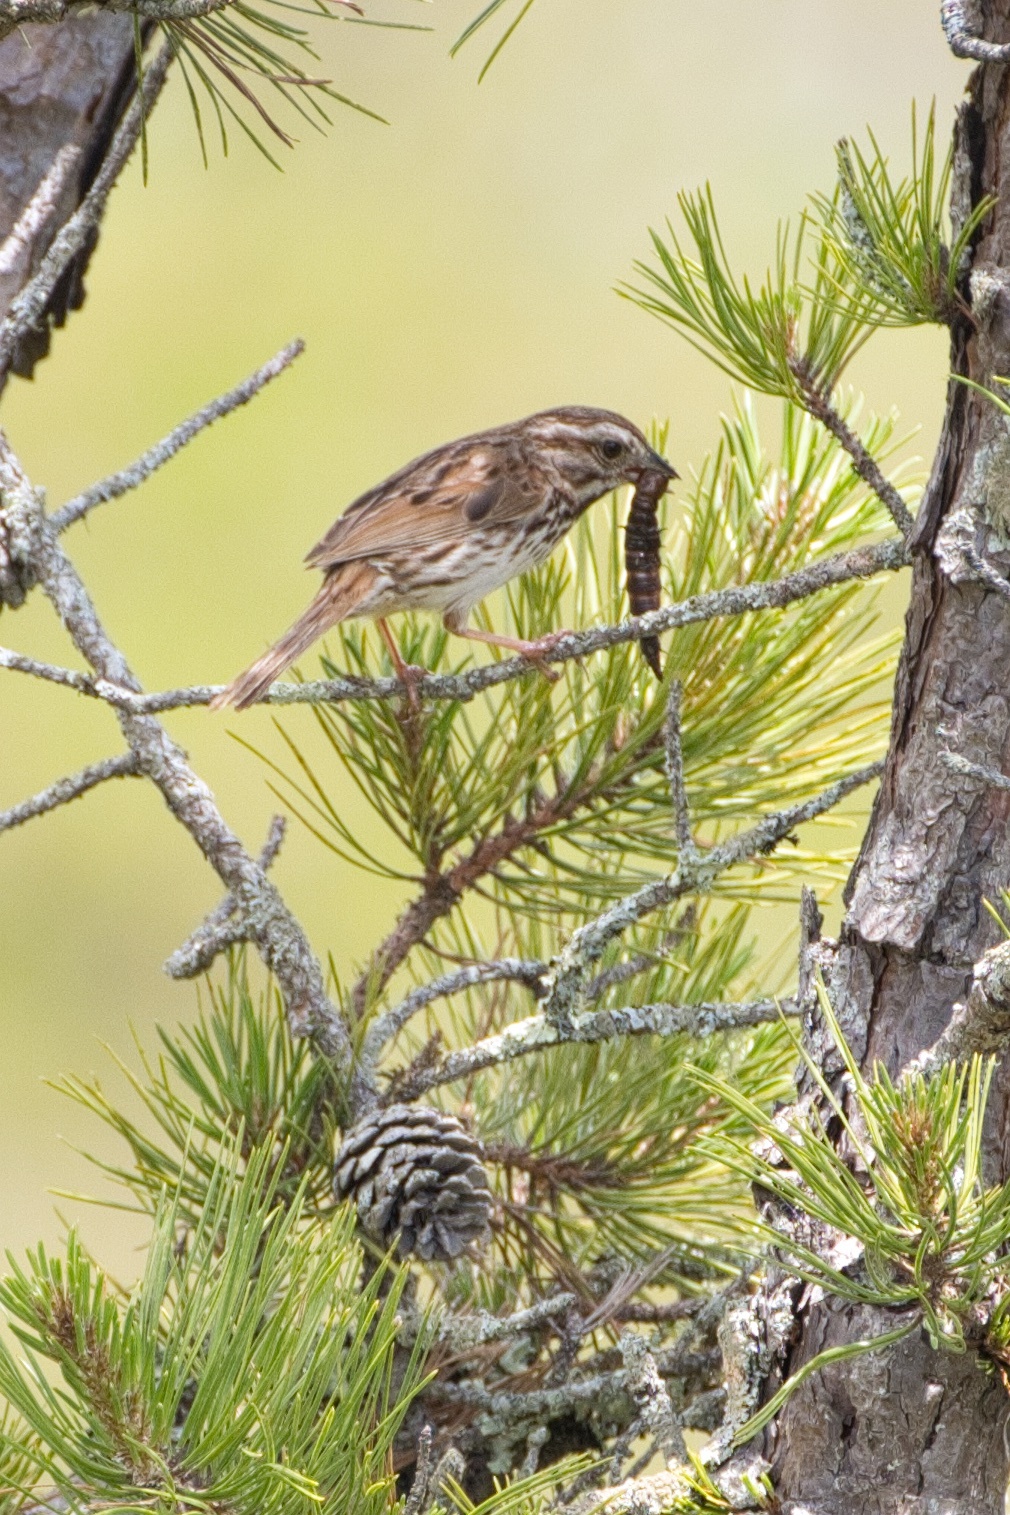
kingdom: Animalia
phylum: Chordata
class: Aves
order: Passeriformes
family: Passerellidae
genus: Melospiza
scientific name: Melospiza melodia
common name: Song sparrow
